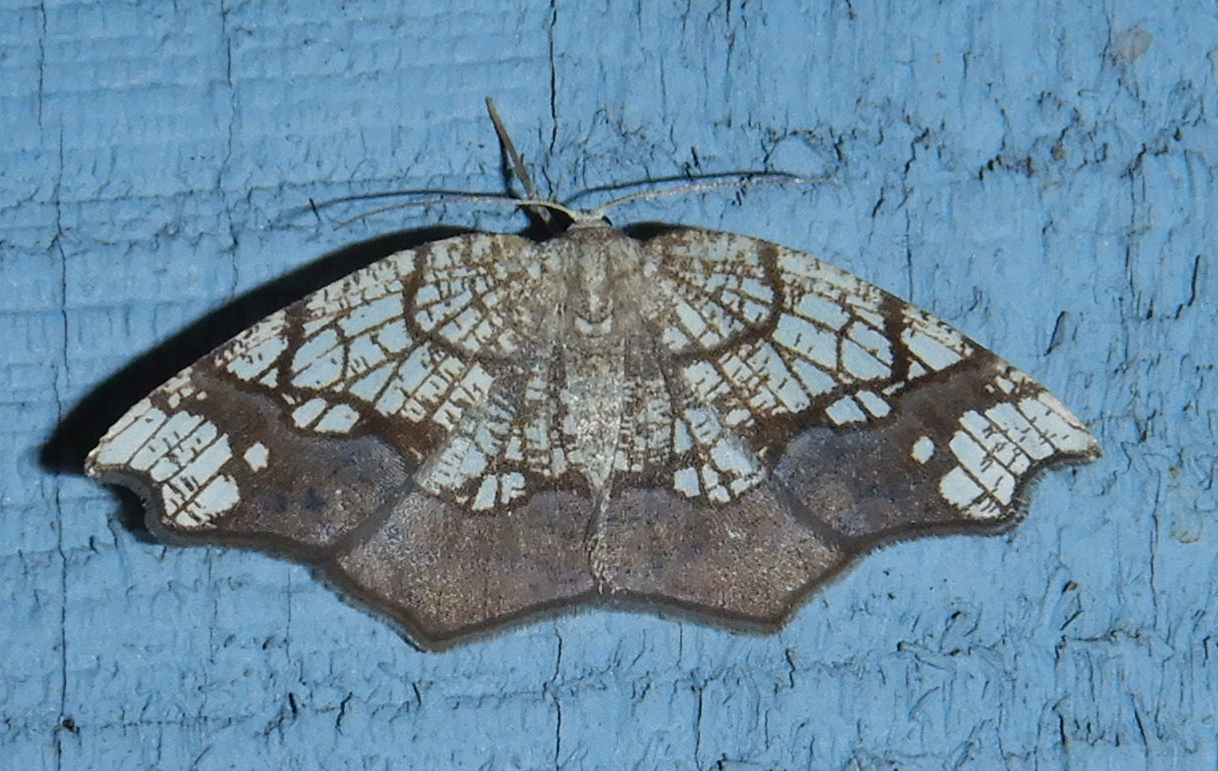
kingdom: Animalia
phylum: Arthropoda
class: Insecta
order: Lepidoptera
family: Geometridae
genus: Nematocampa
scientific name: Nematocampa resistaria
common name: Horned spanworm moth
